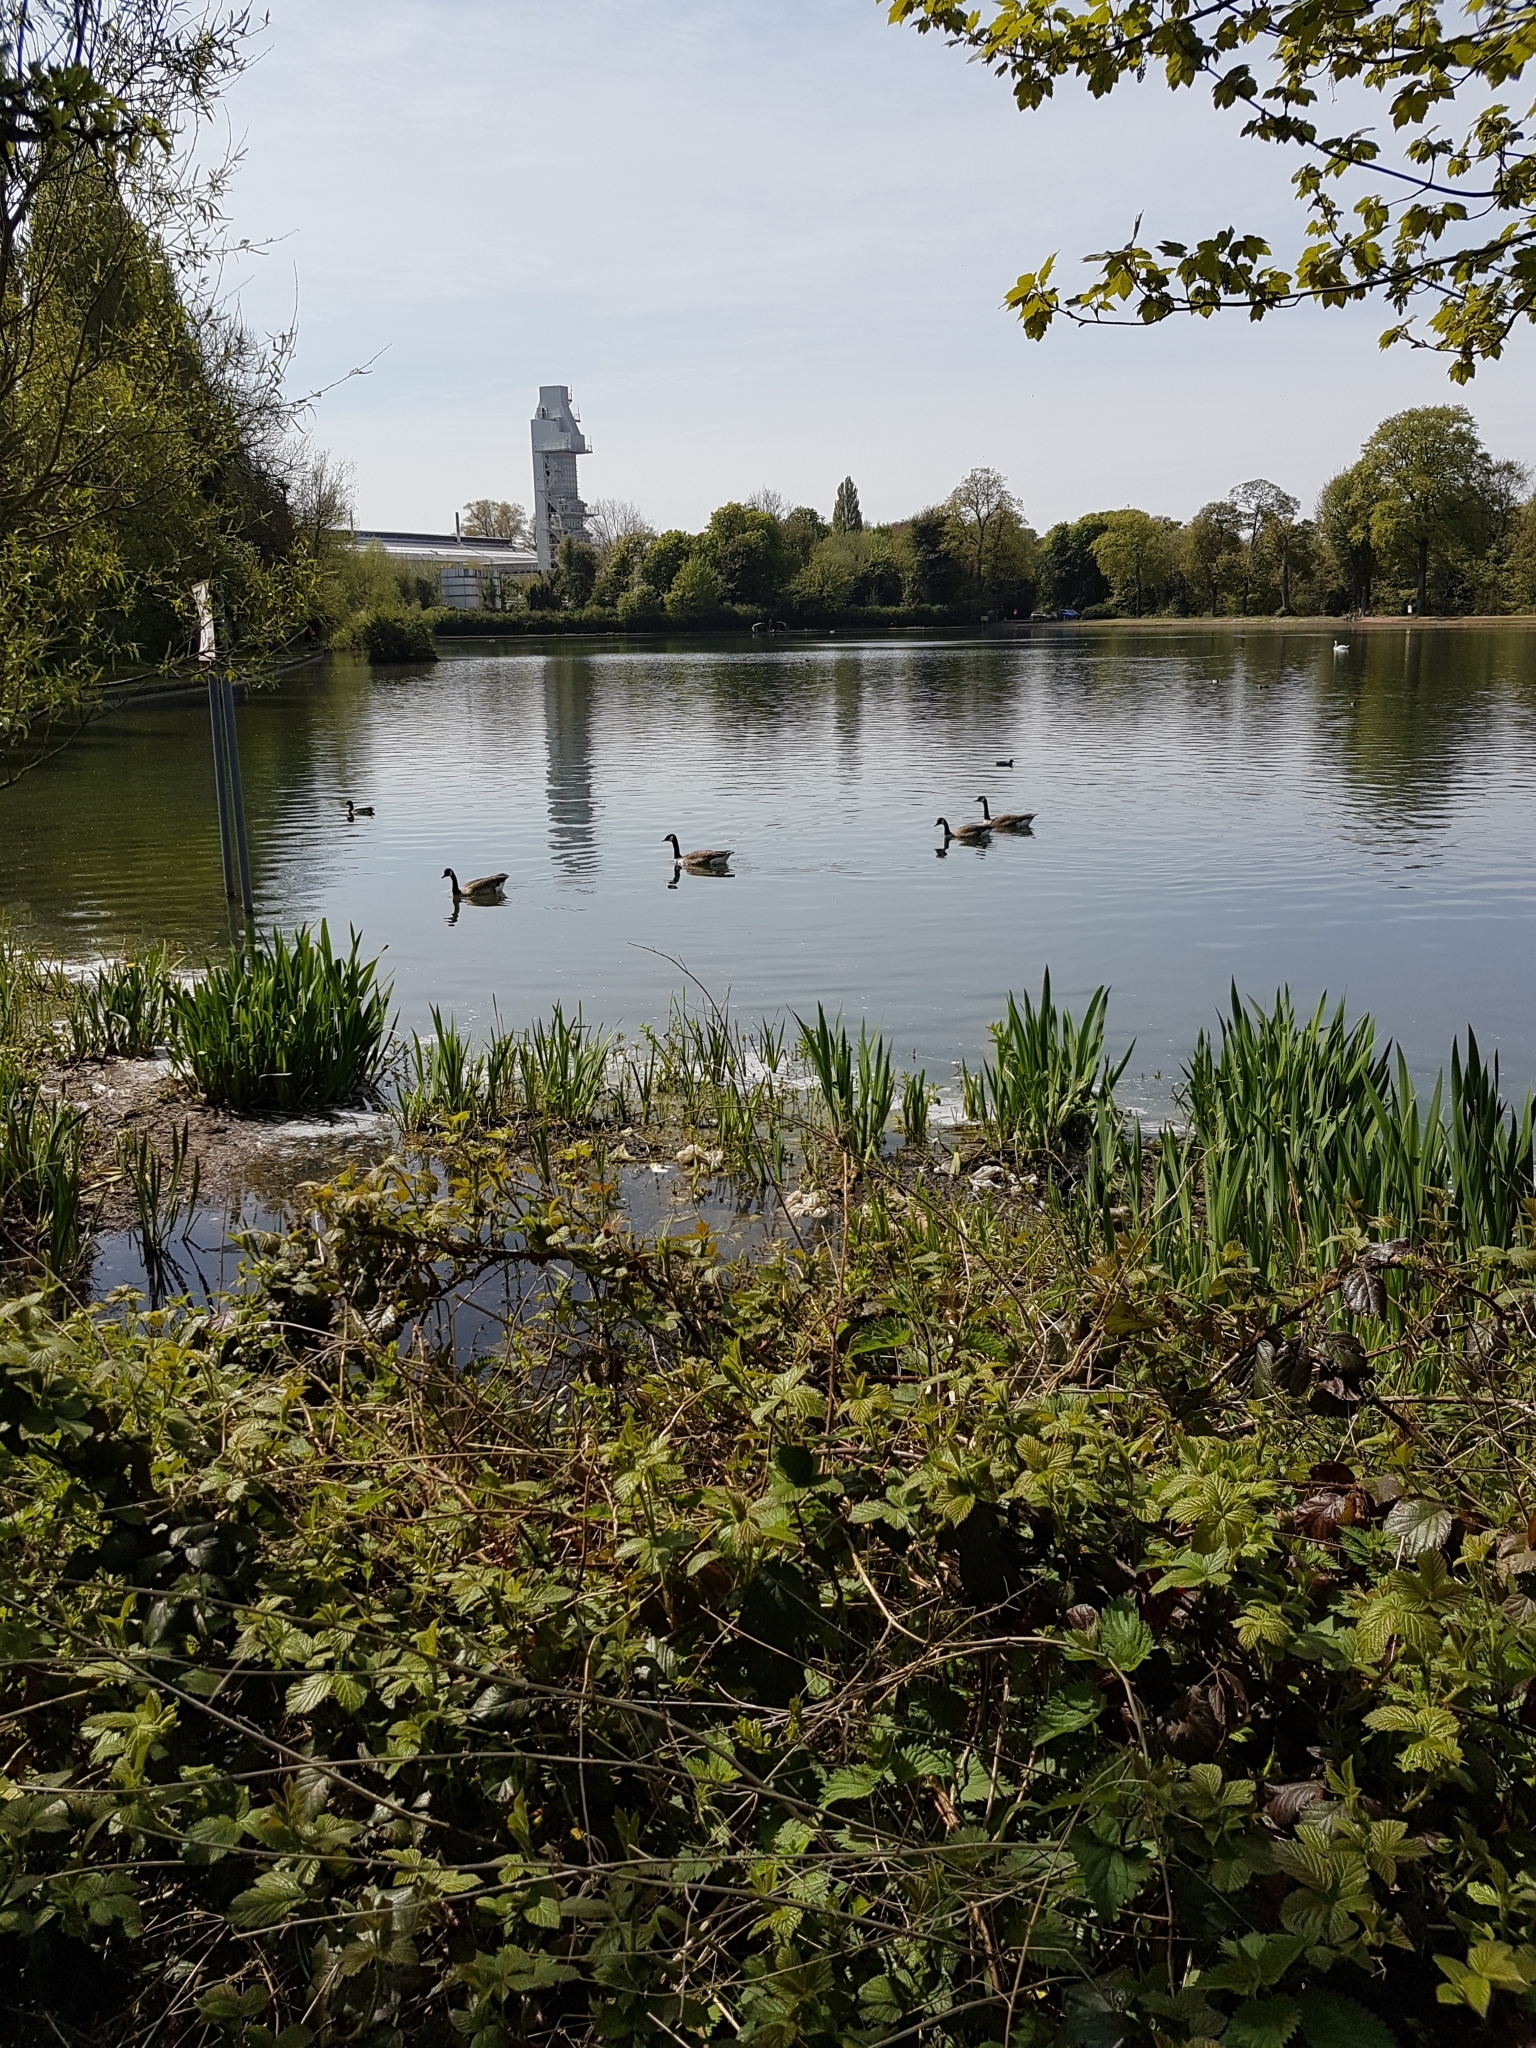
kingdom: Animalia
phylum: Chordata
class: Aves
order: Anseriformes
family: Anatidae
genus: Branta
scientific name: Branta canadensis
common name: Canada goose
